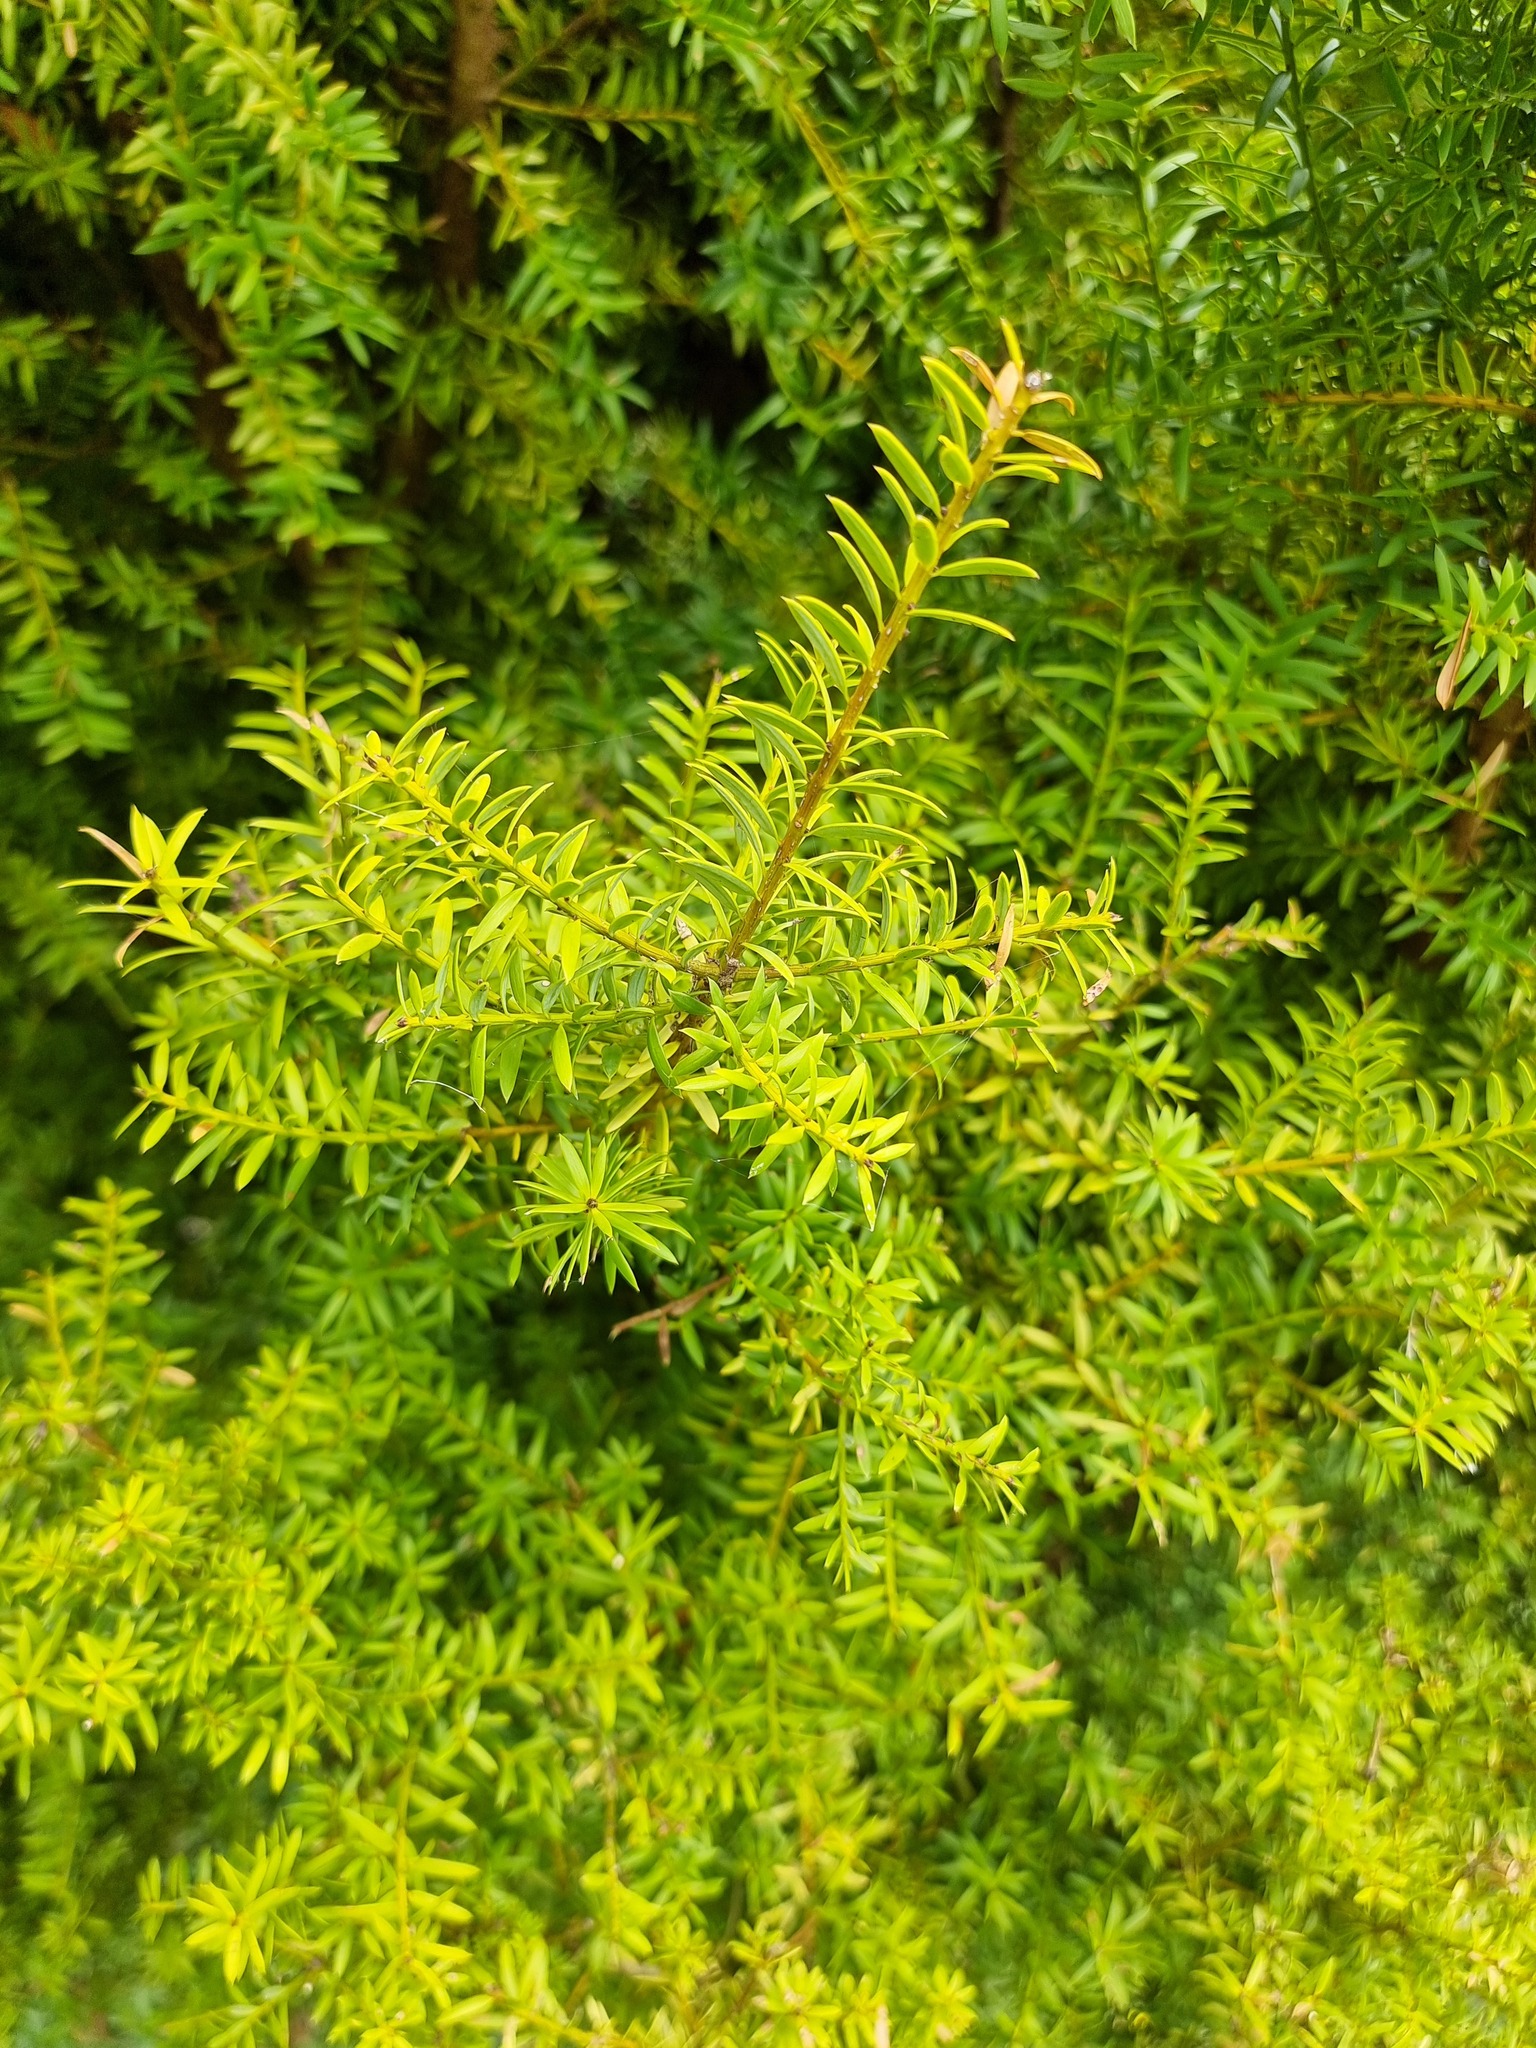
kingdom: Plantae
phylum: Tracheophyta
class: Pinopsida
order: Pinales
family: Podocarpaceae
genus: Podocarpus
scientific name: Podocarpus totara
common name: Totara
